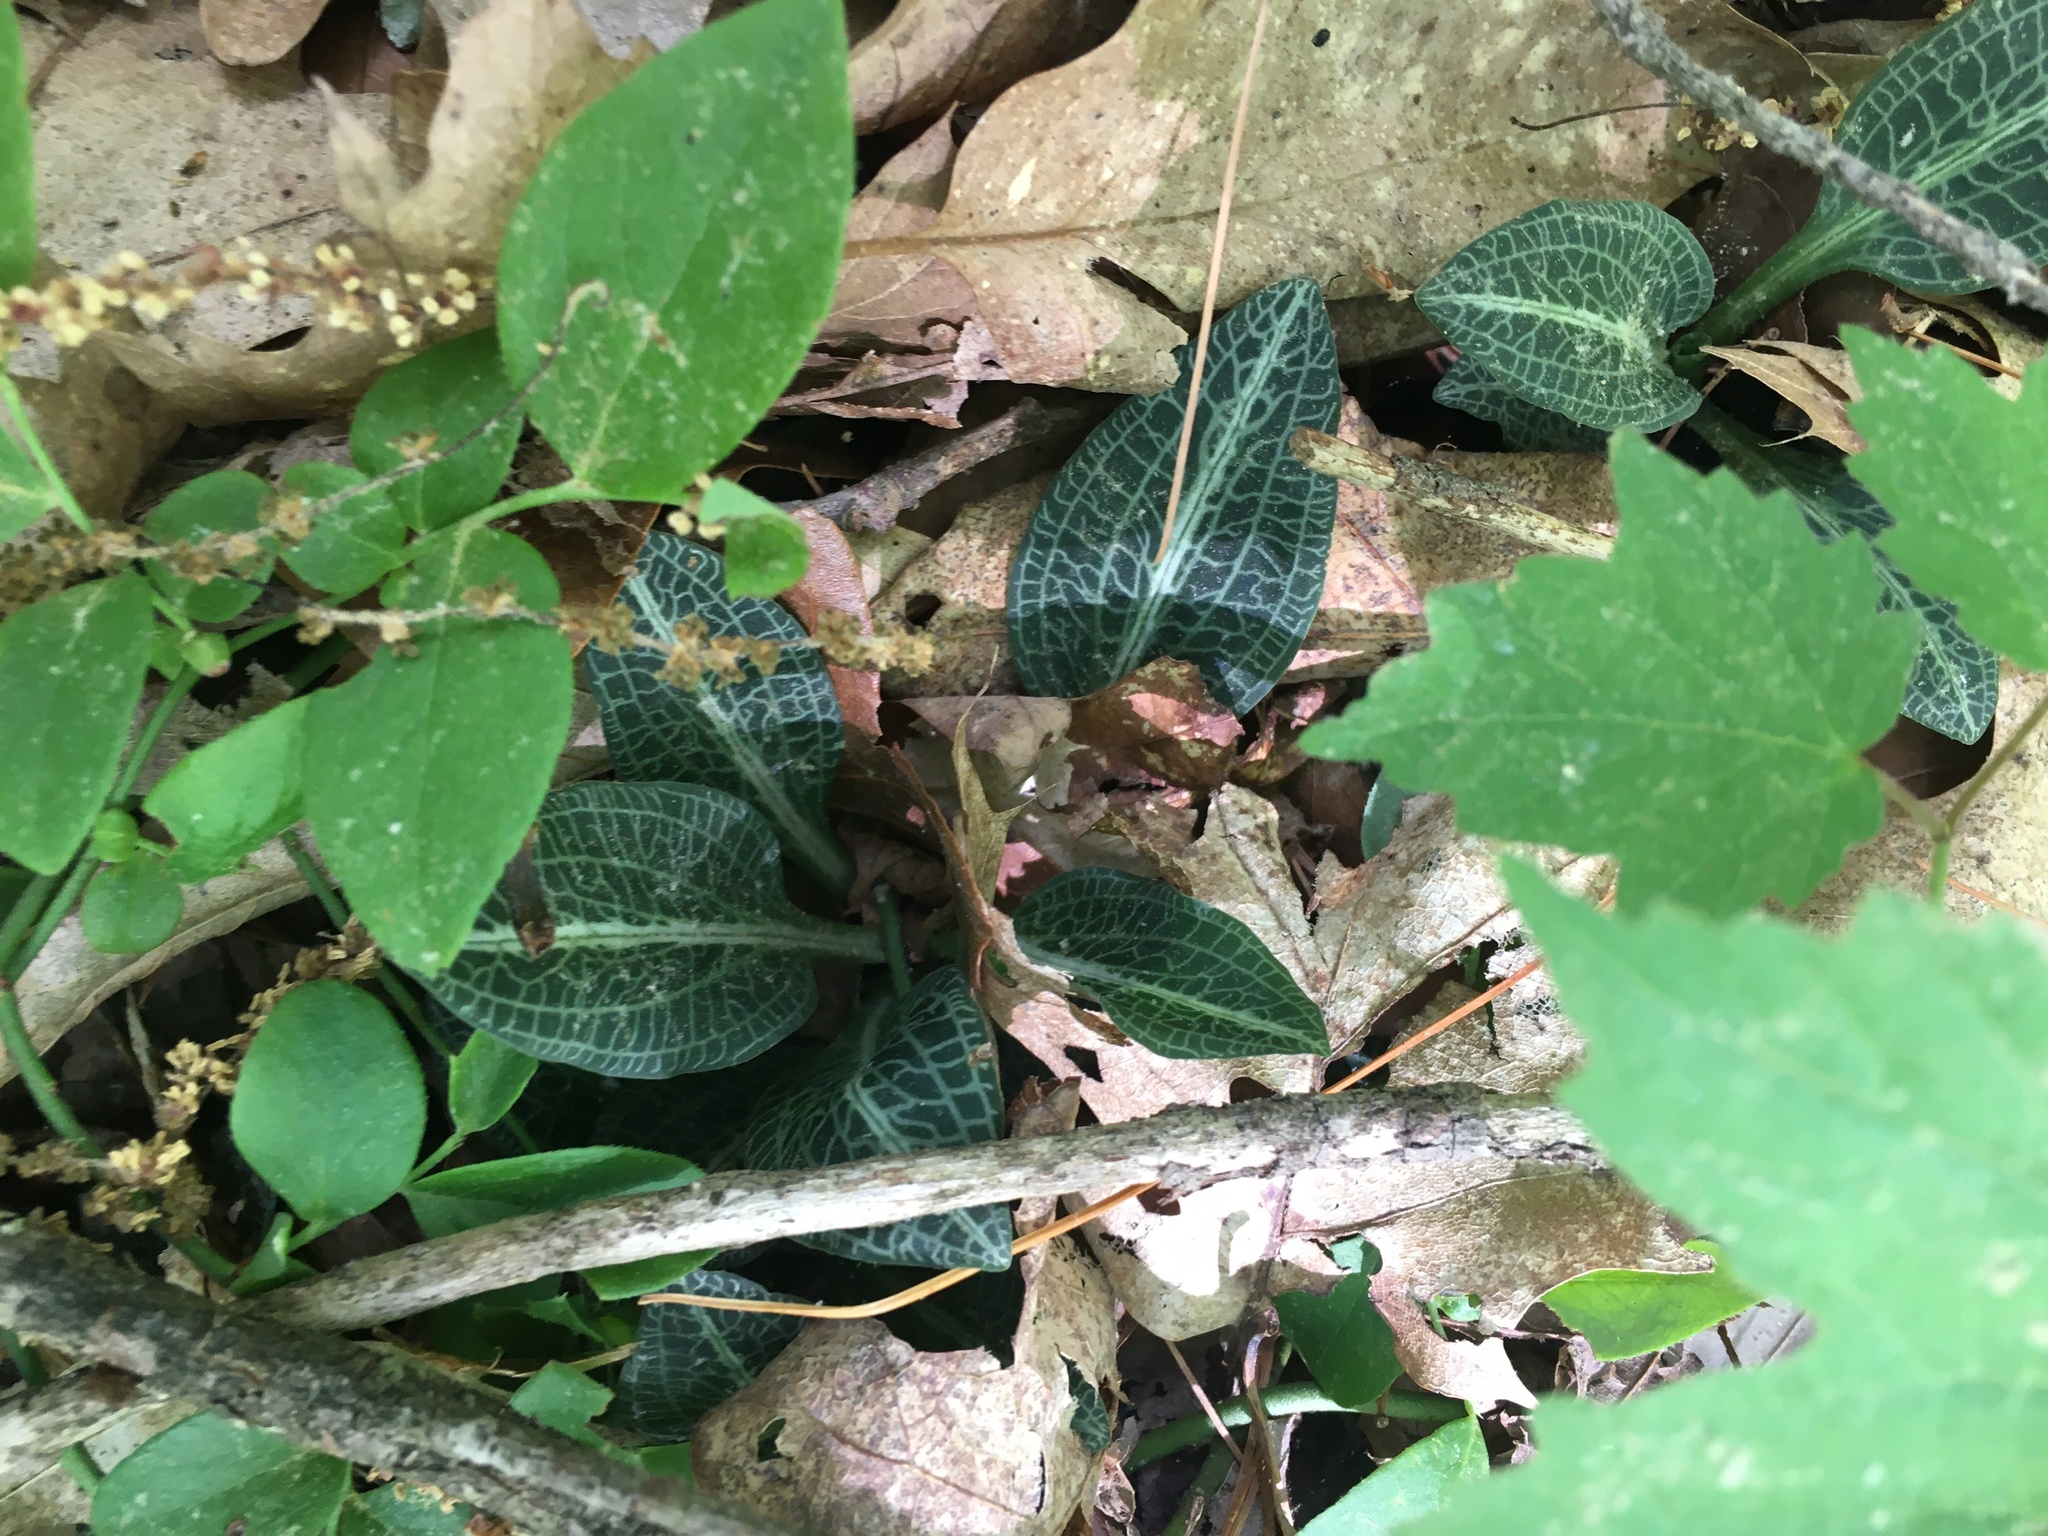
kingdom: Plantae
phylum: Tracheophyta
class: Liliopsida
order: Asparagales
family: Orchidaceae
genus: Goodyera
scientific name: Goodyera pubescens
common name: Downy rattlesnake-plantain
